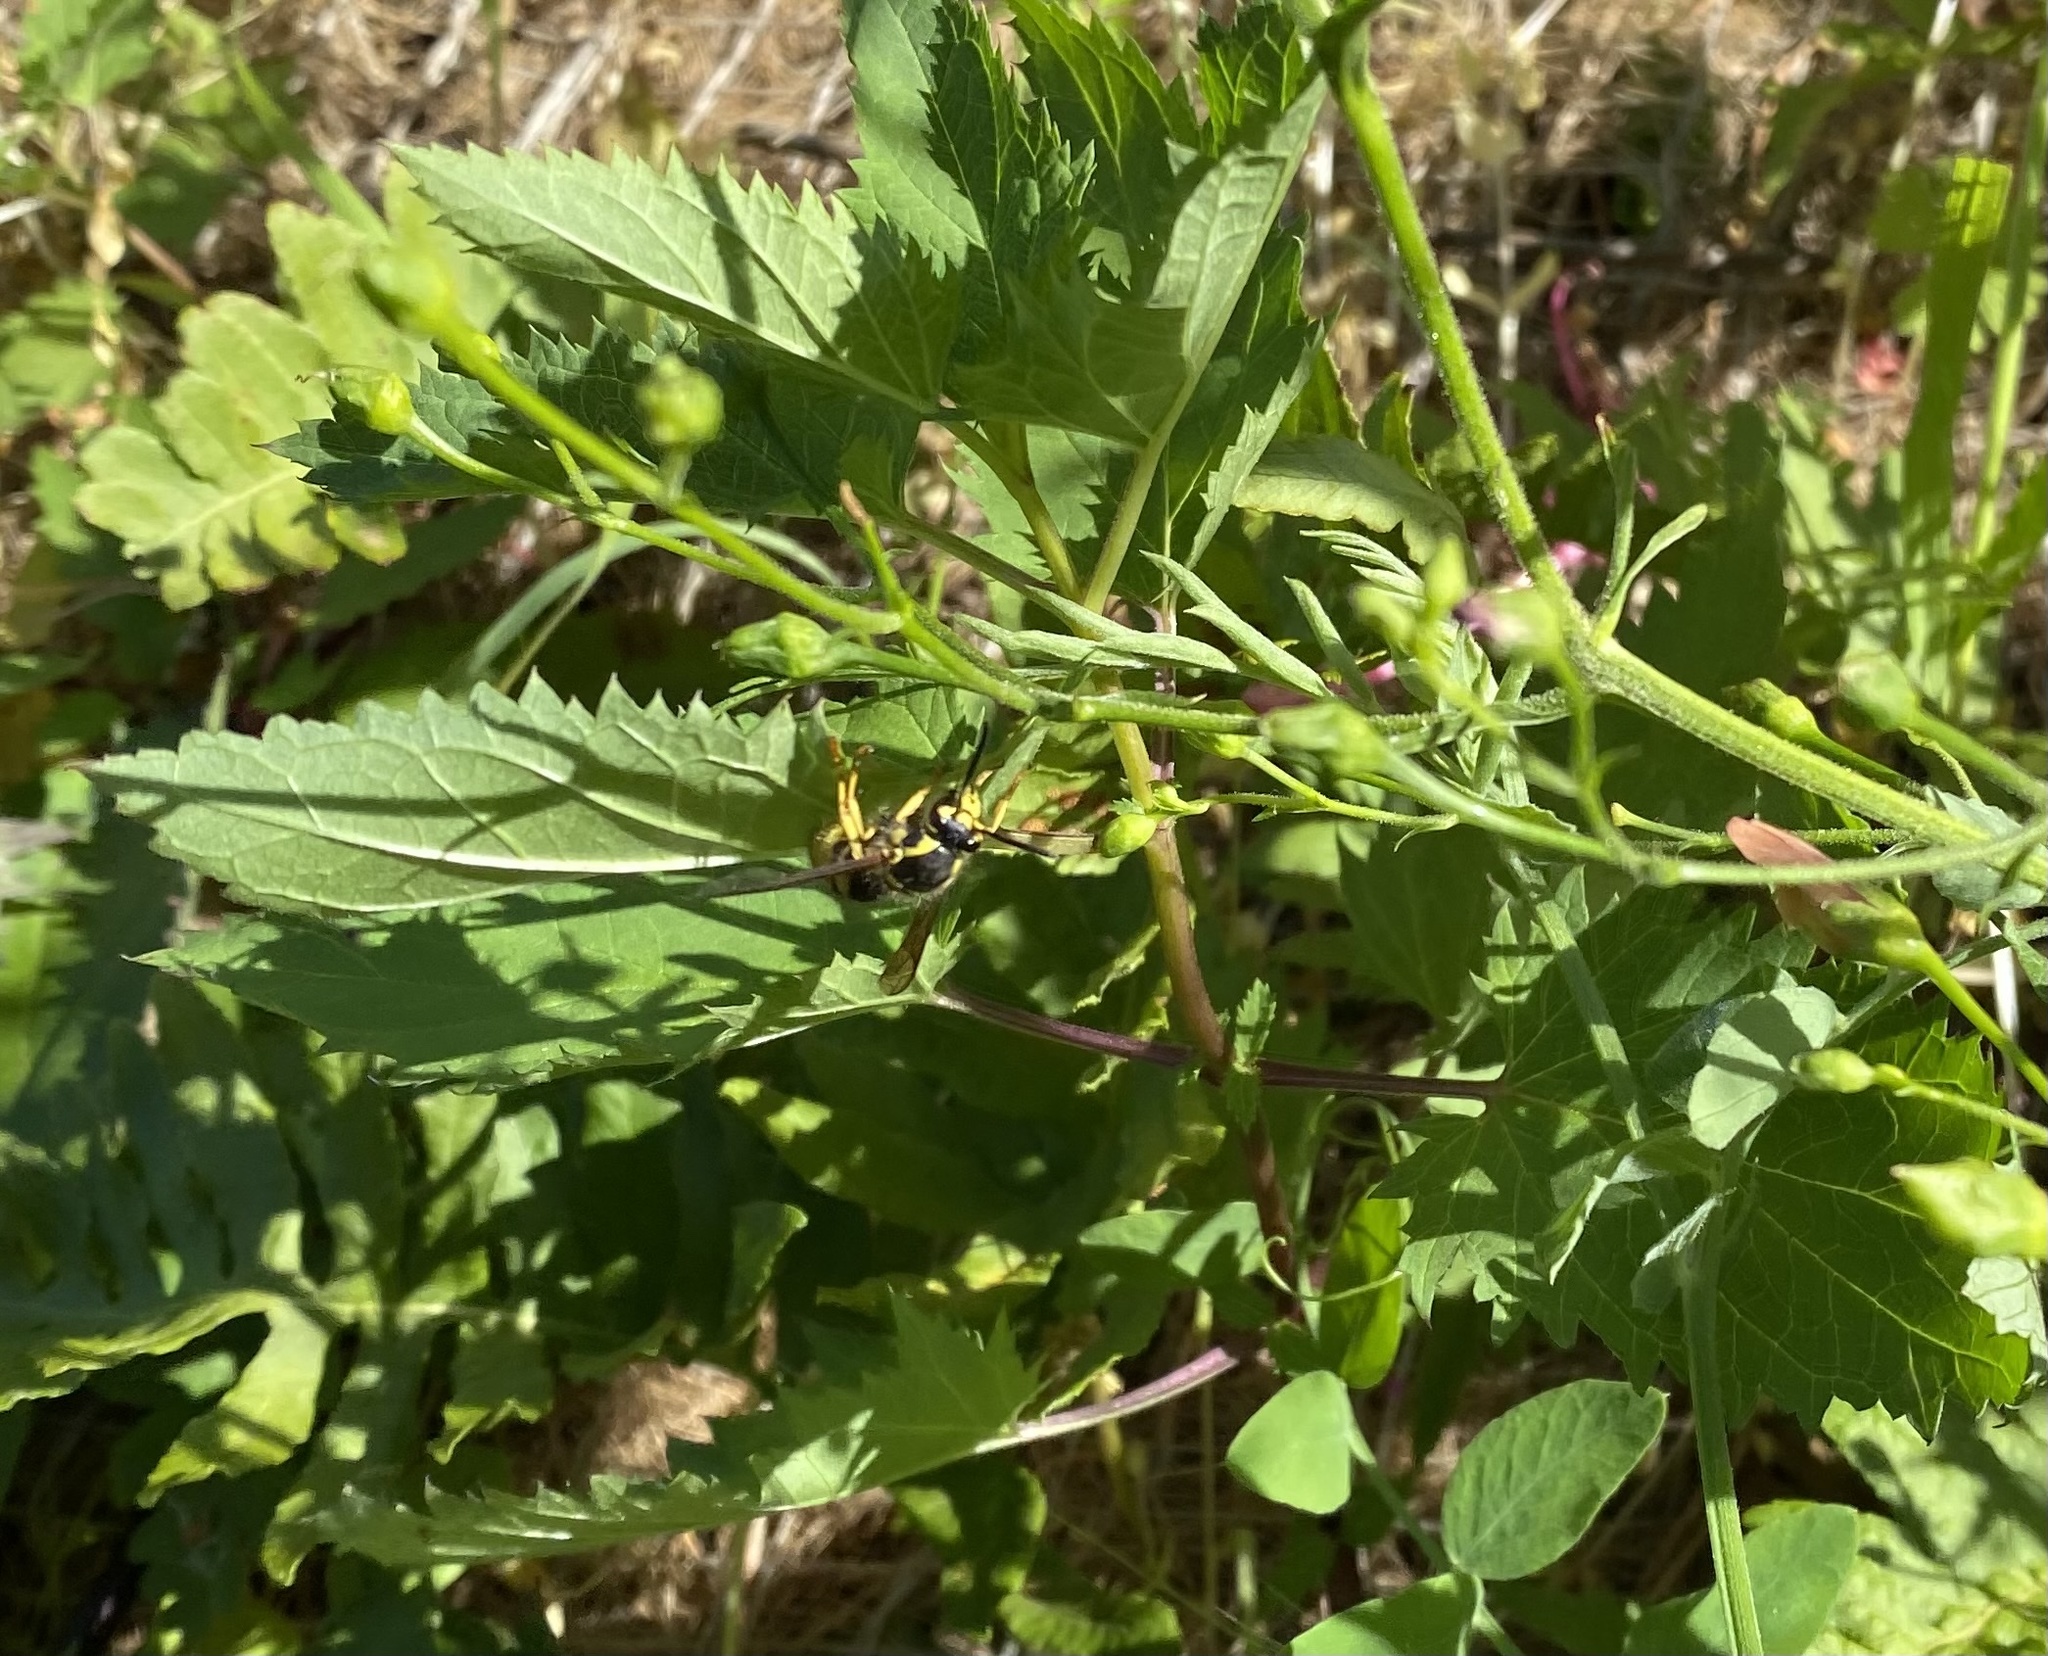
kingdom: Animalia
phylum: Arthropoda
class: Insecta
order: Hymenoptera
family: Vespidae
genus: Dolichovespula
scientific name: Dolichovespula arenaria
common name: Aerial yellowjacket
